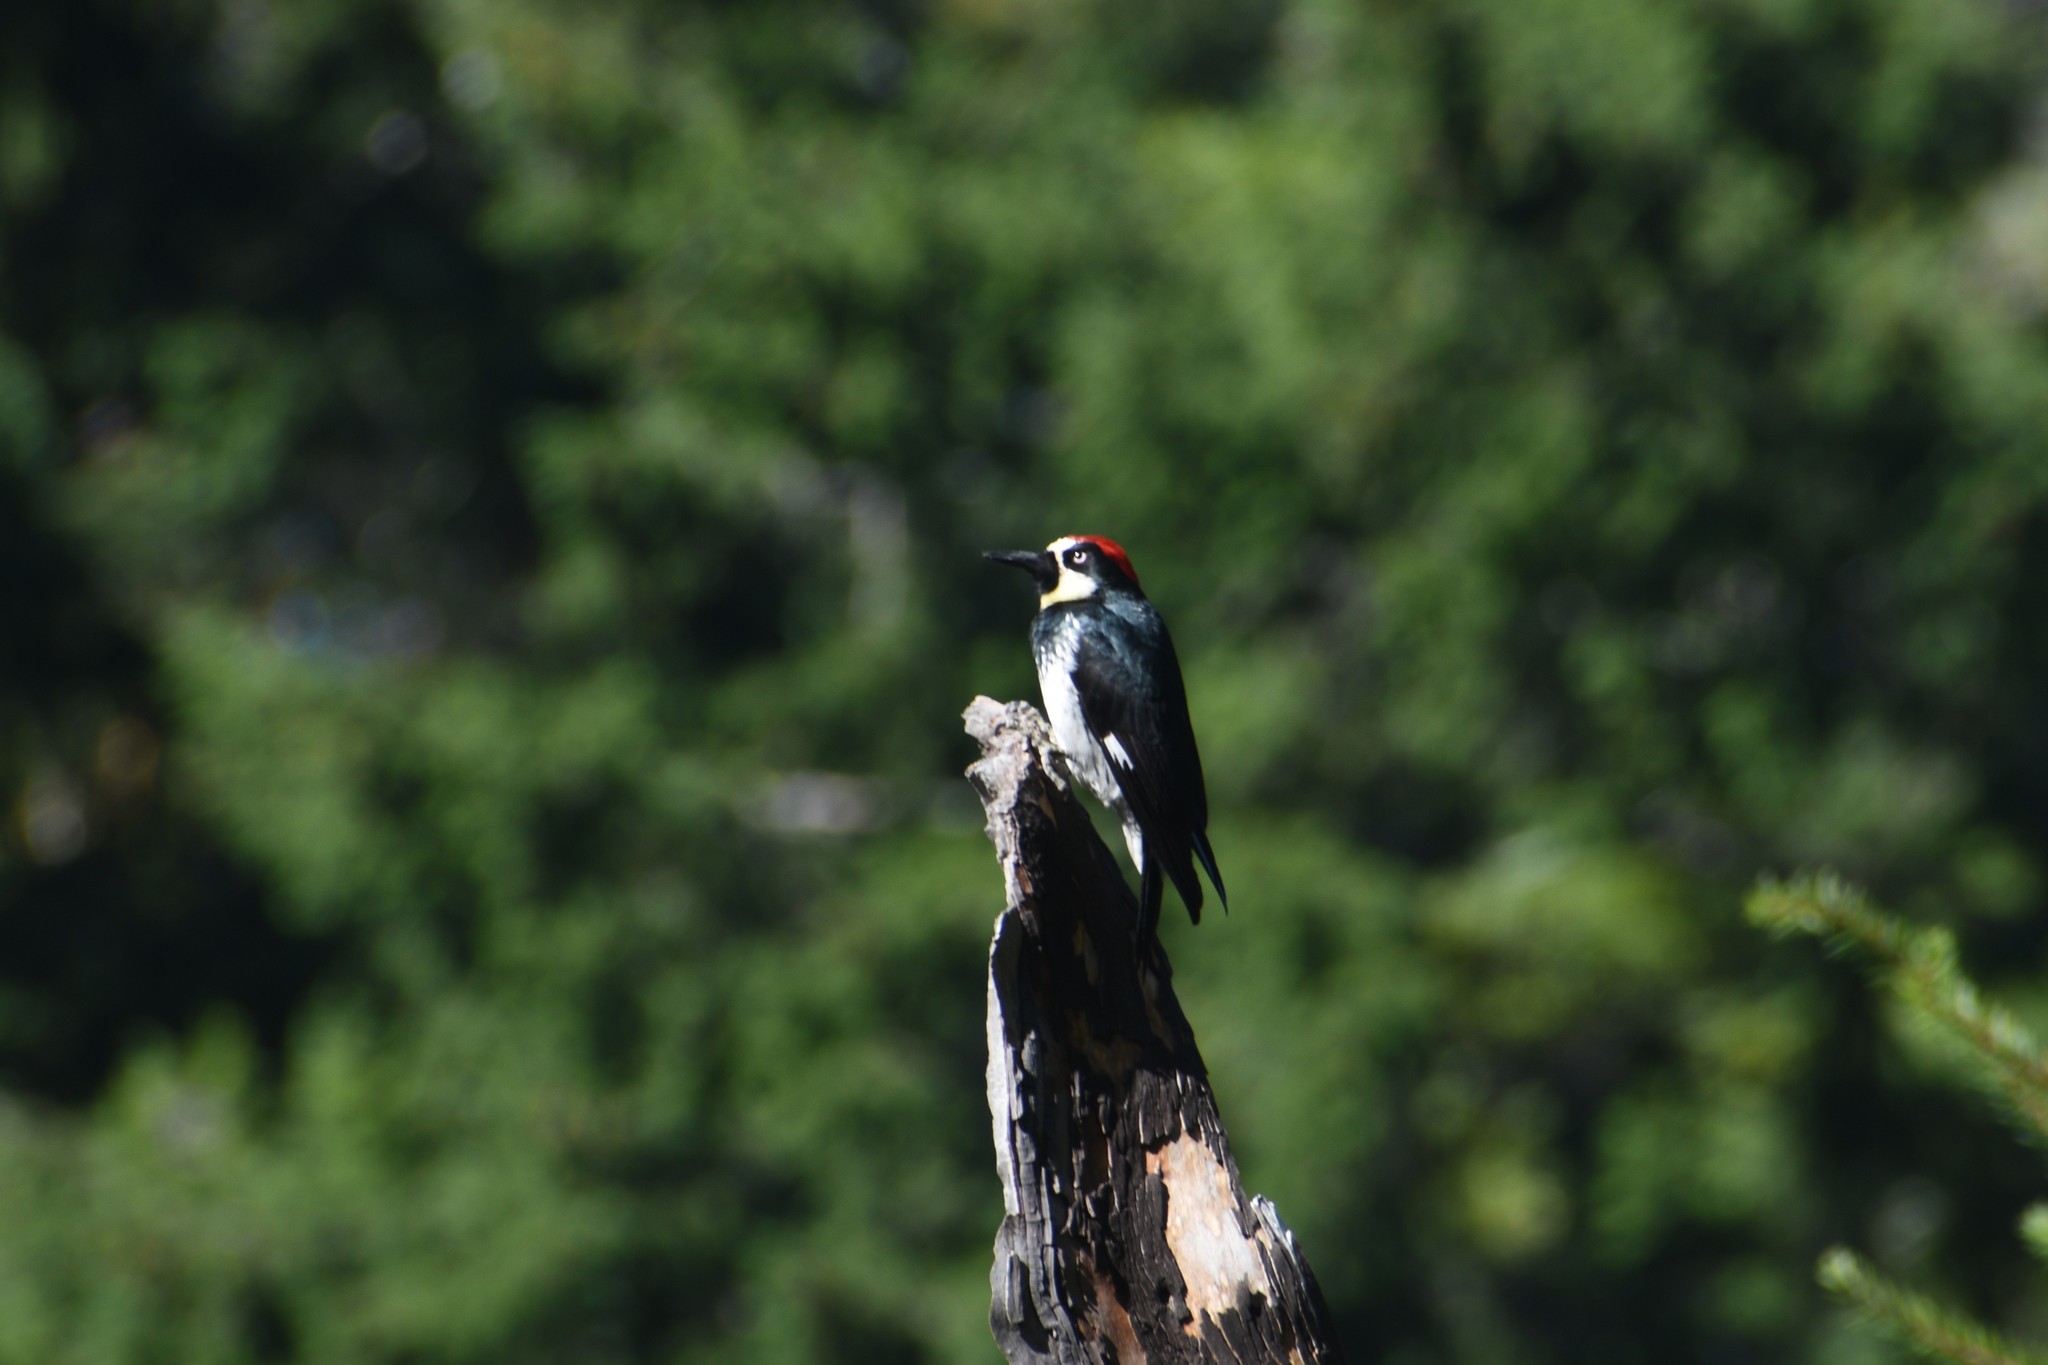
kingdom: Animalia
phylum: Chordata
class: Aves
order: Piciformes
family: Picidae
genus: Melanerpes
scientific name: Melanerpes formicivorus
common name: Acorn woodpecker
